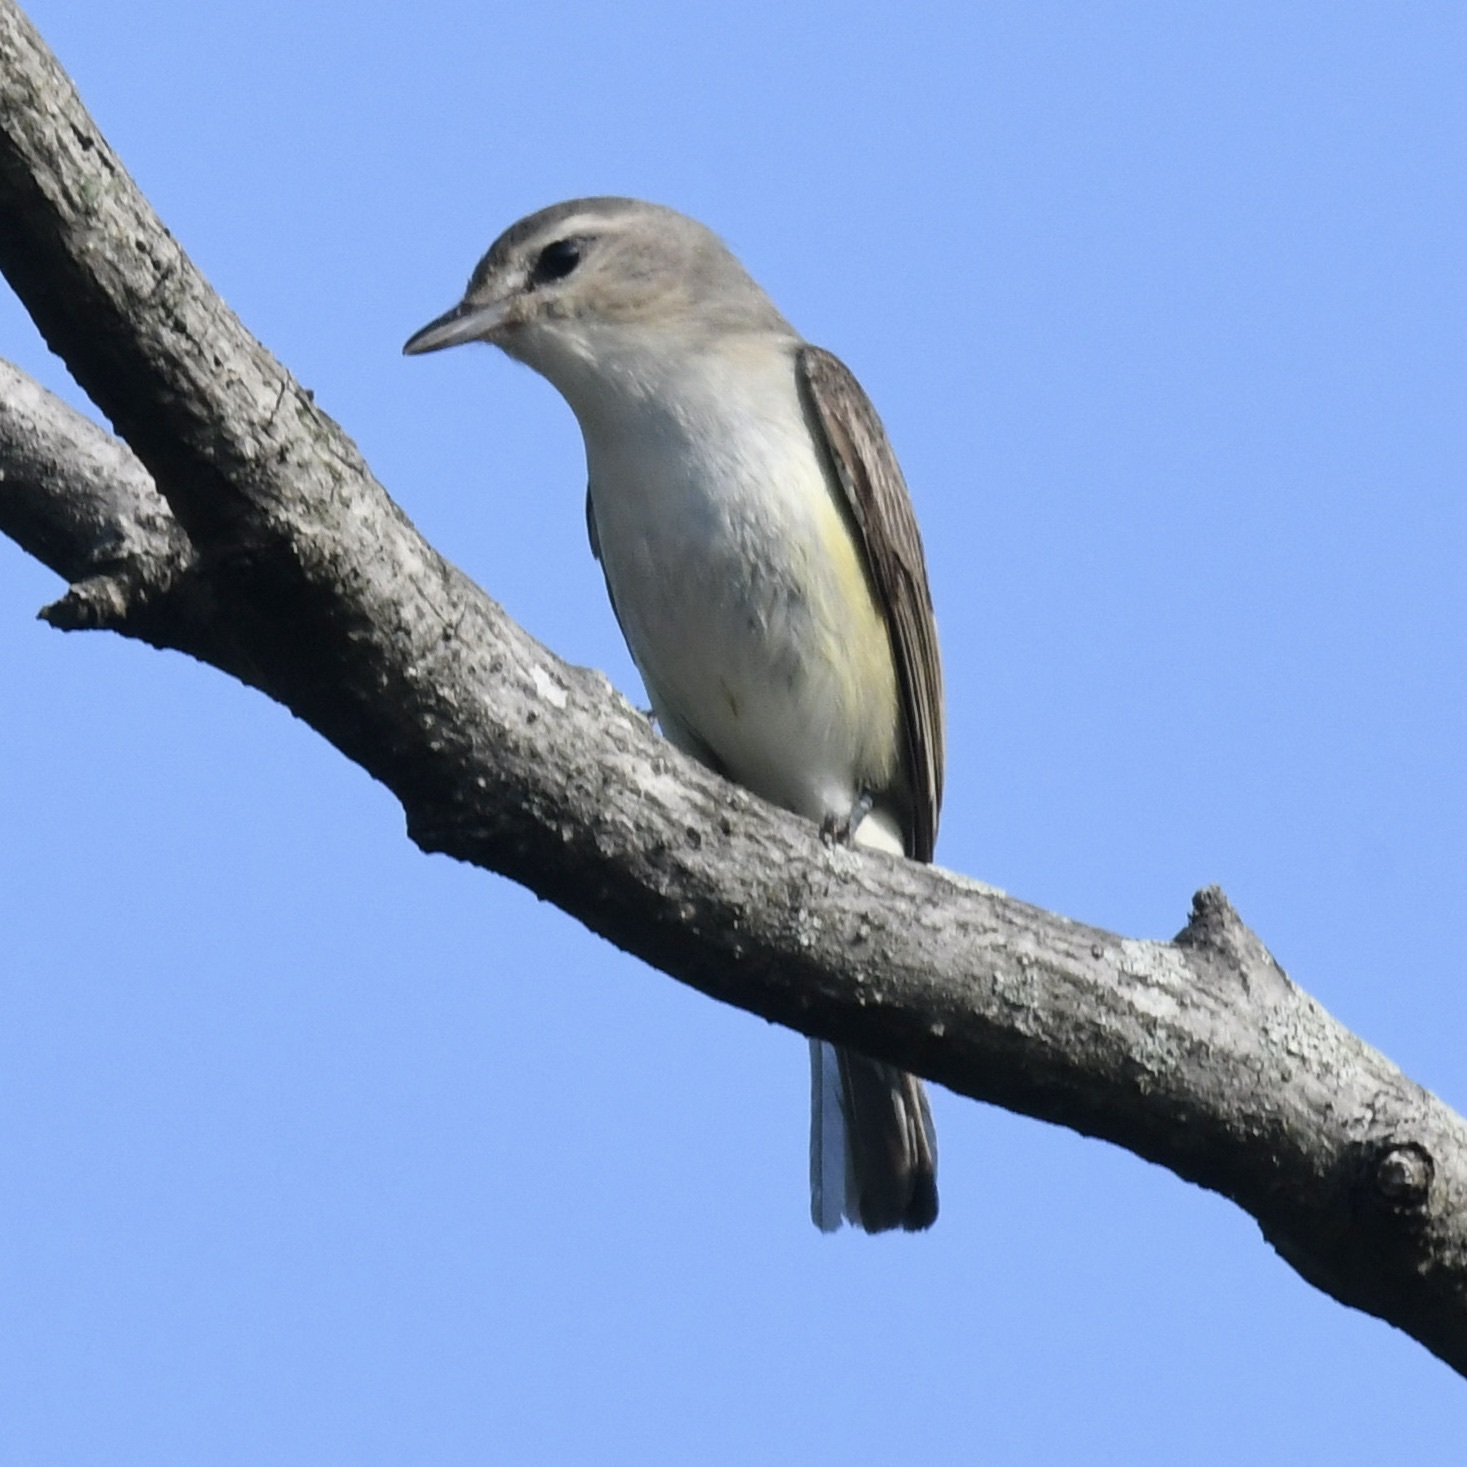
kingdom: Animalia
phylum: Chordata
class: Aves
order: Passeriformes
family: Vireonidae
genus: Vireo
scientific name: Vireo gilvus
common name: Warbling vireo
